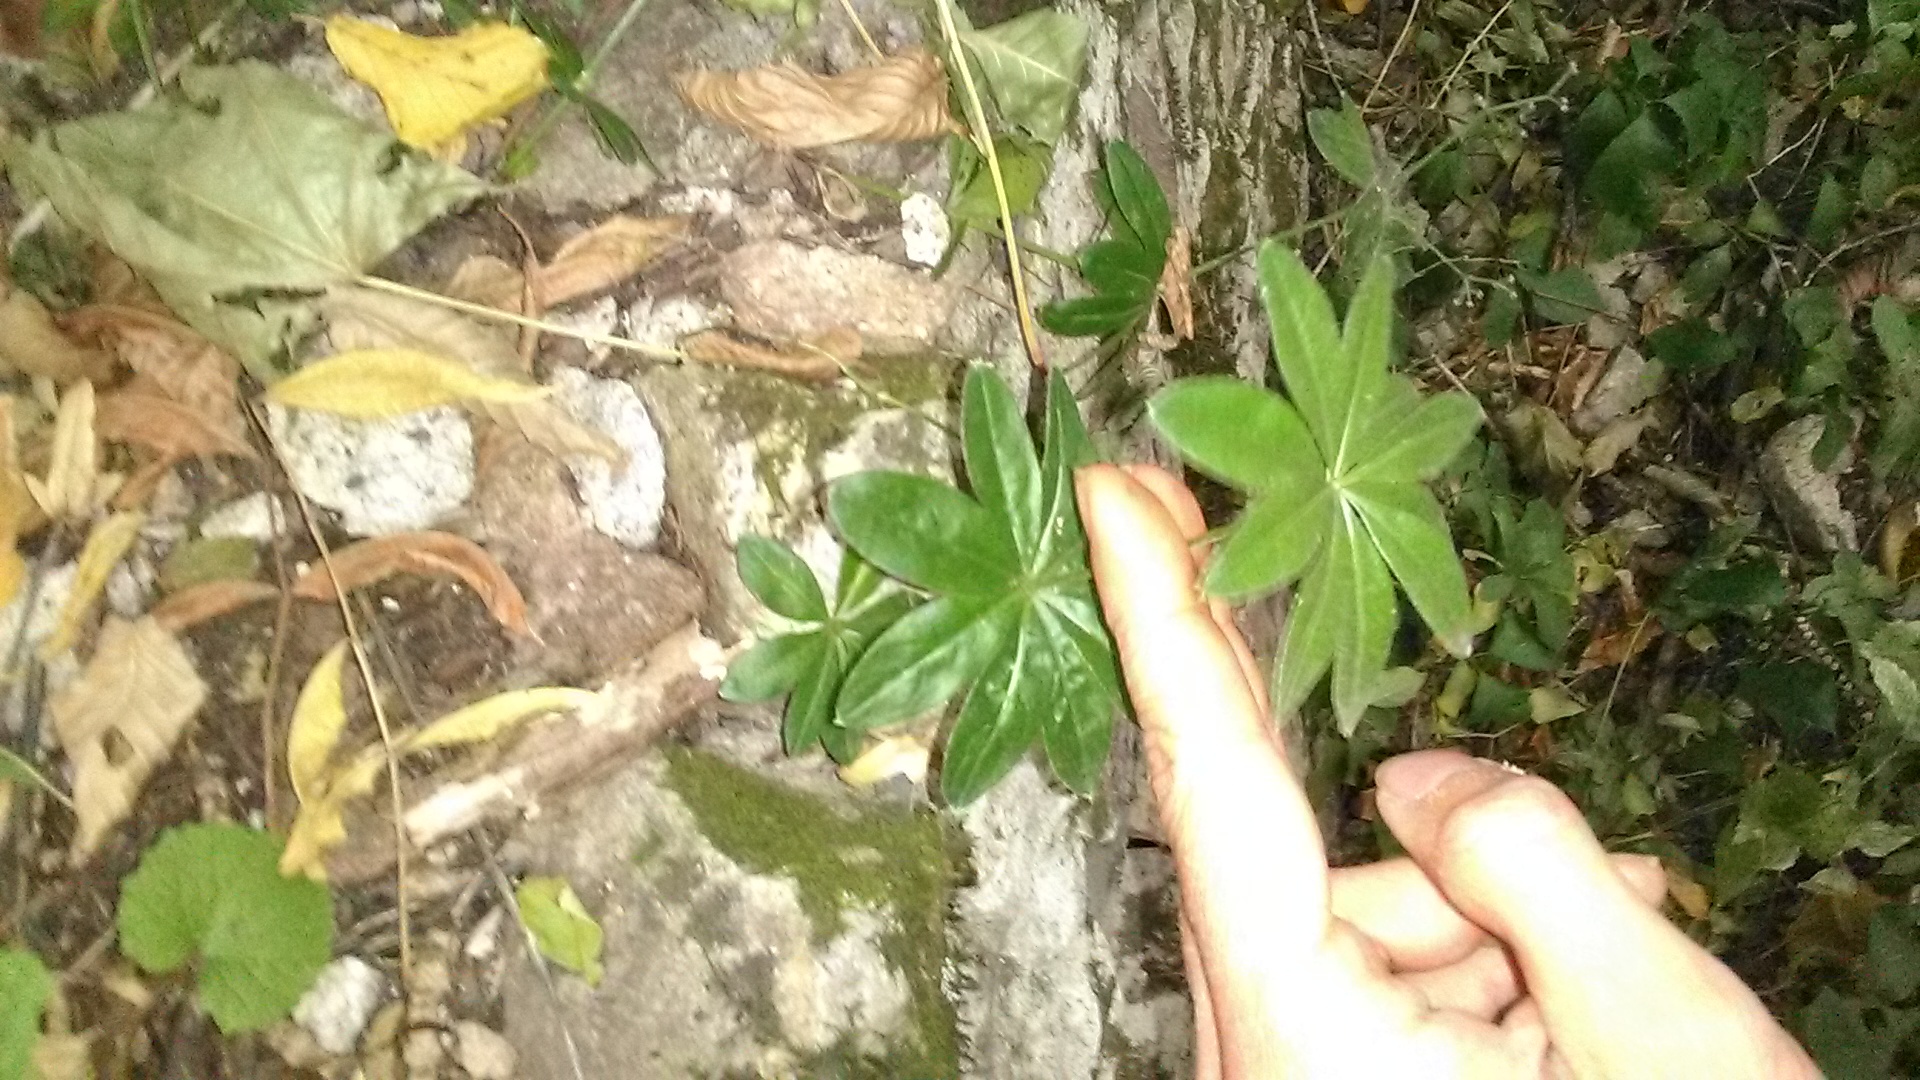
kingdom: Plantae
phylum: Tracheophyta
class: Magnoliopsida
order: Gentianales
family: Rubiaceae
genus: Galium
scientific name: Galium odoratum
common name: Sweet woodruff
